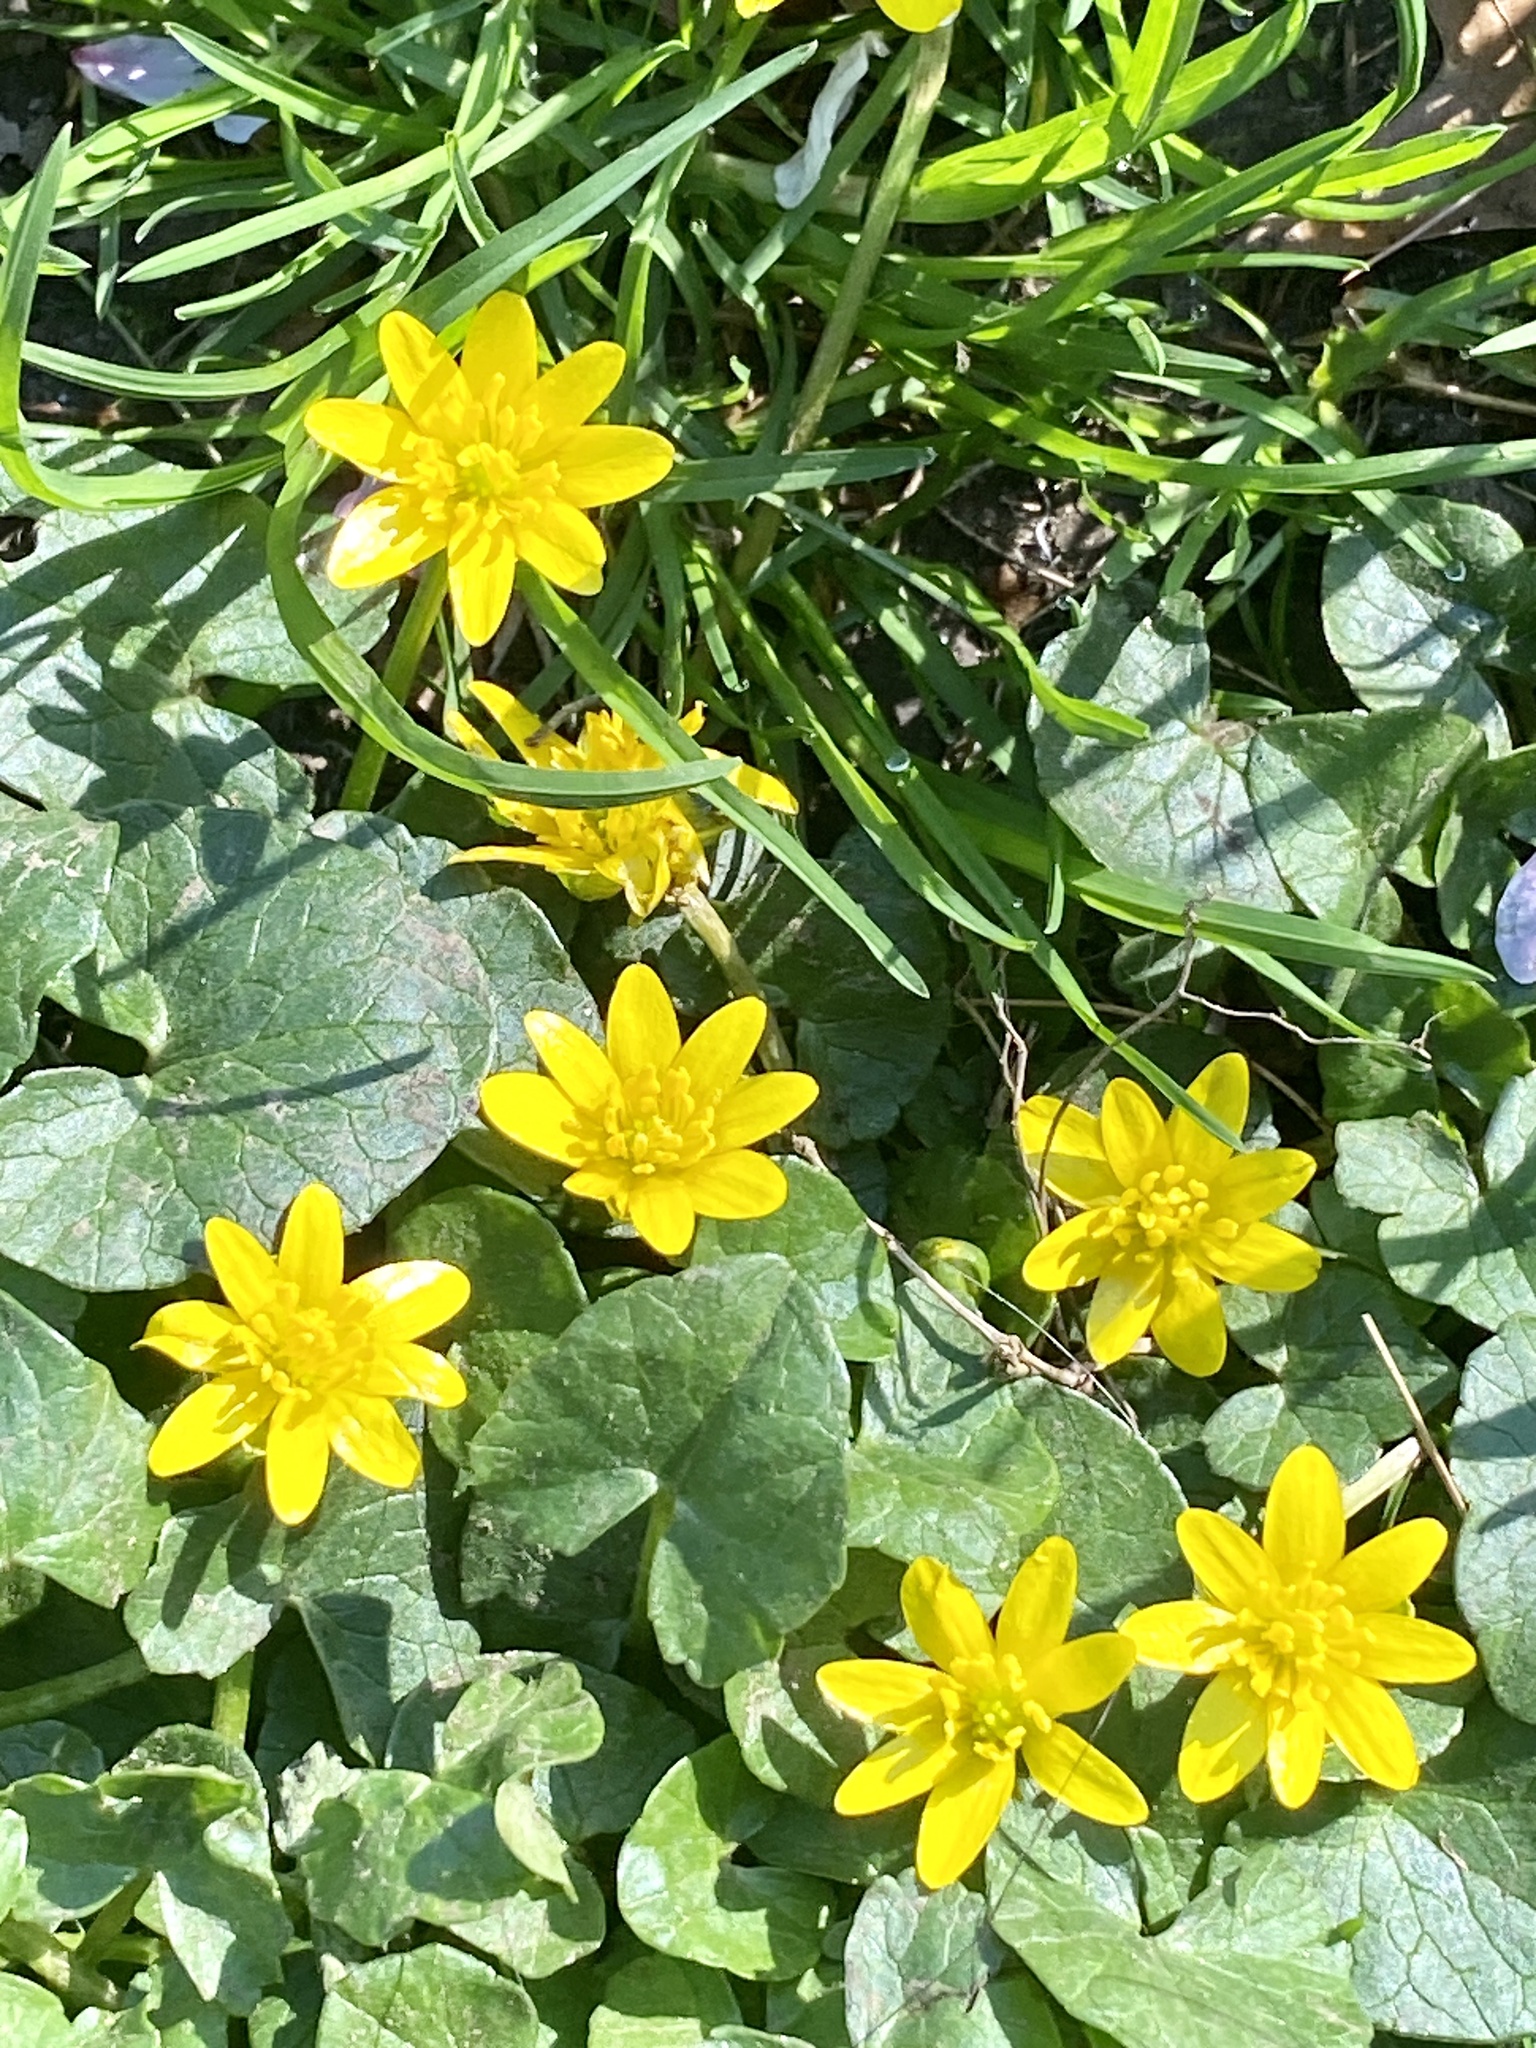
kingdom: Plantae
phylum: Tracheophyta
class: Magnoliopsida
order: Ranunculales
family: Ranunculaceae
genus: Ficaria
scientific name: Ficaria verna
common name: Lesser celandine
